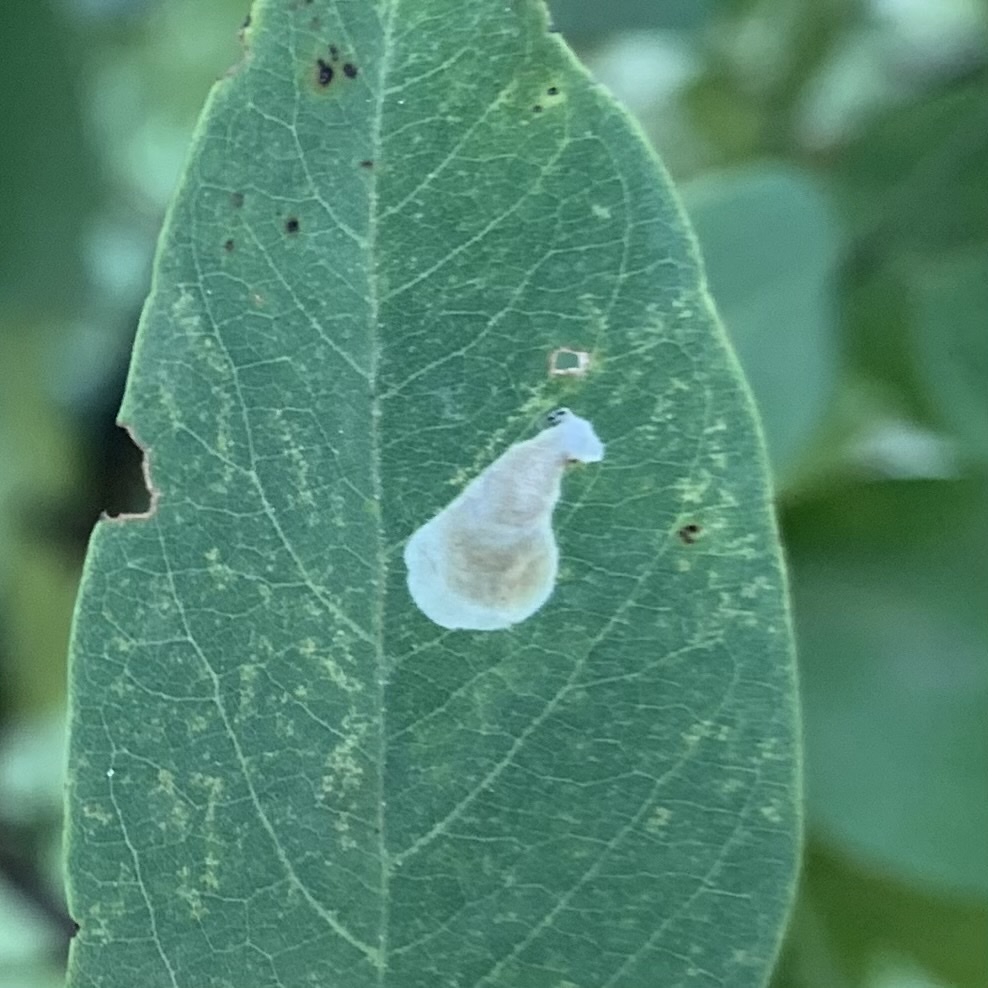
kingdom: Animalia
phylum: Arthropoda
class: Insecta
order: Lepidoptera
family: Gracillariidae
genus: Chrysaster
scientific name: Chrysaster ostensackenella
